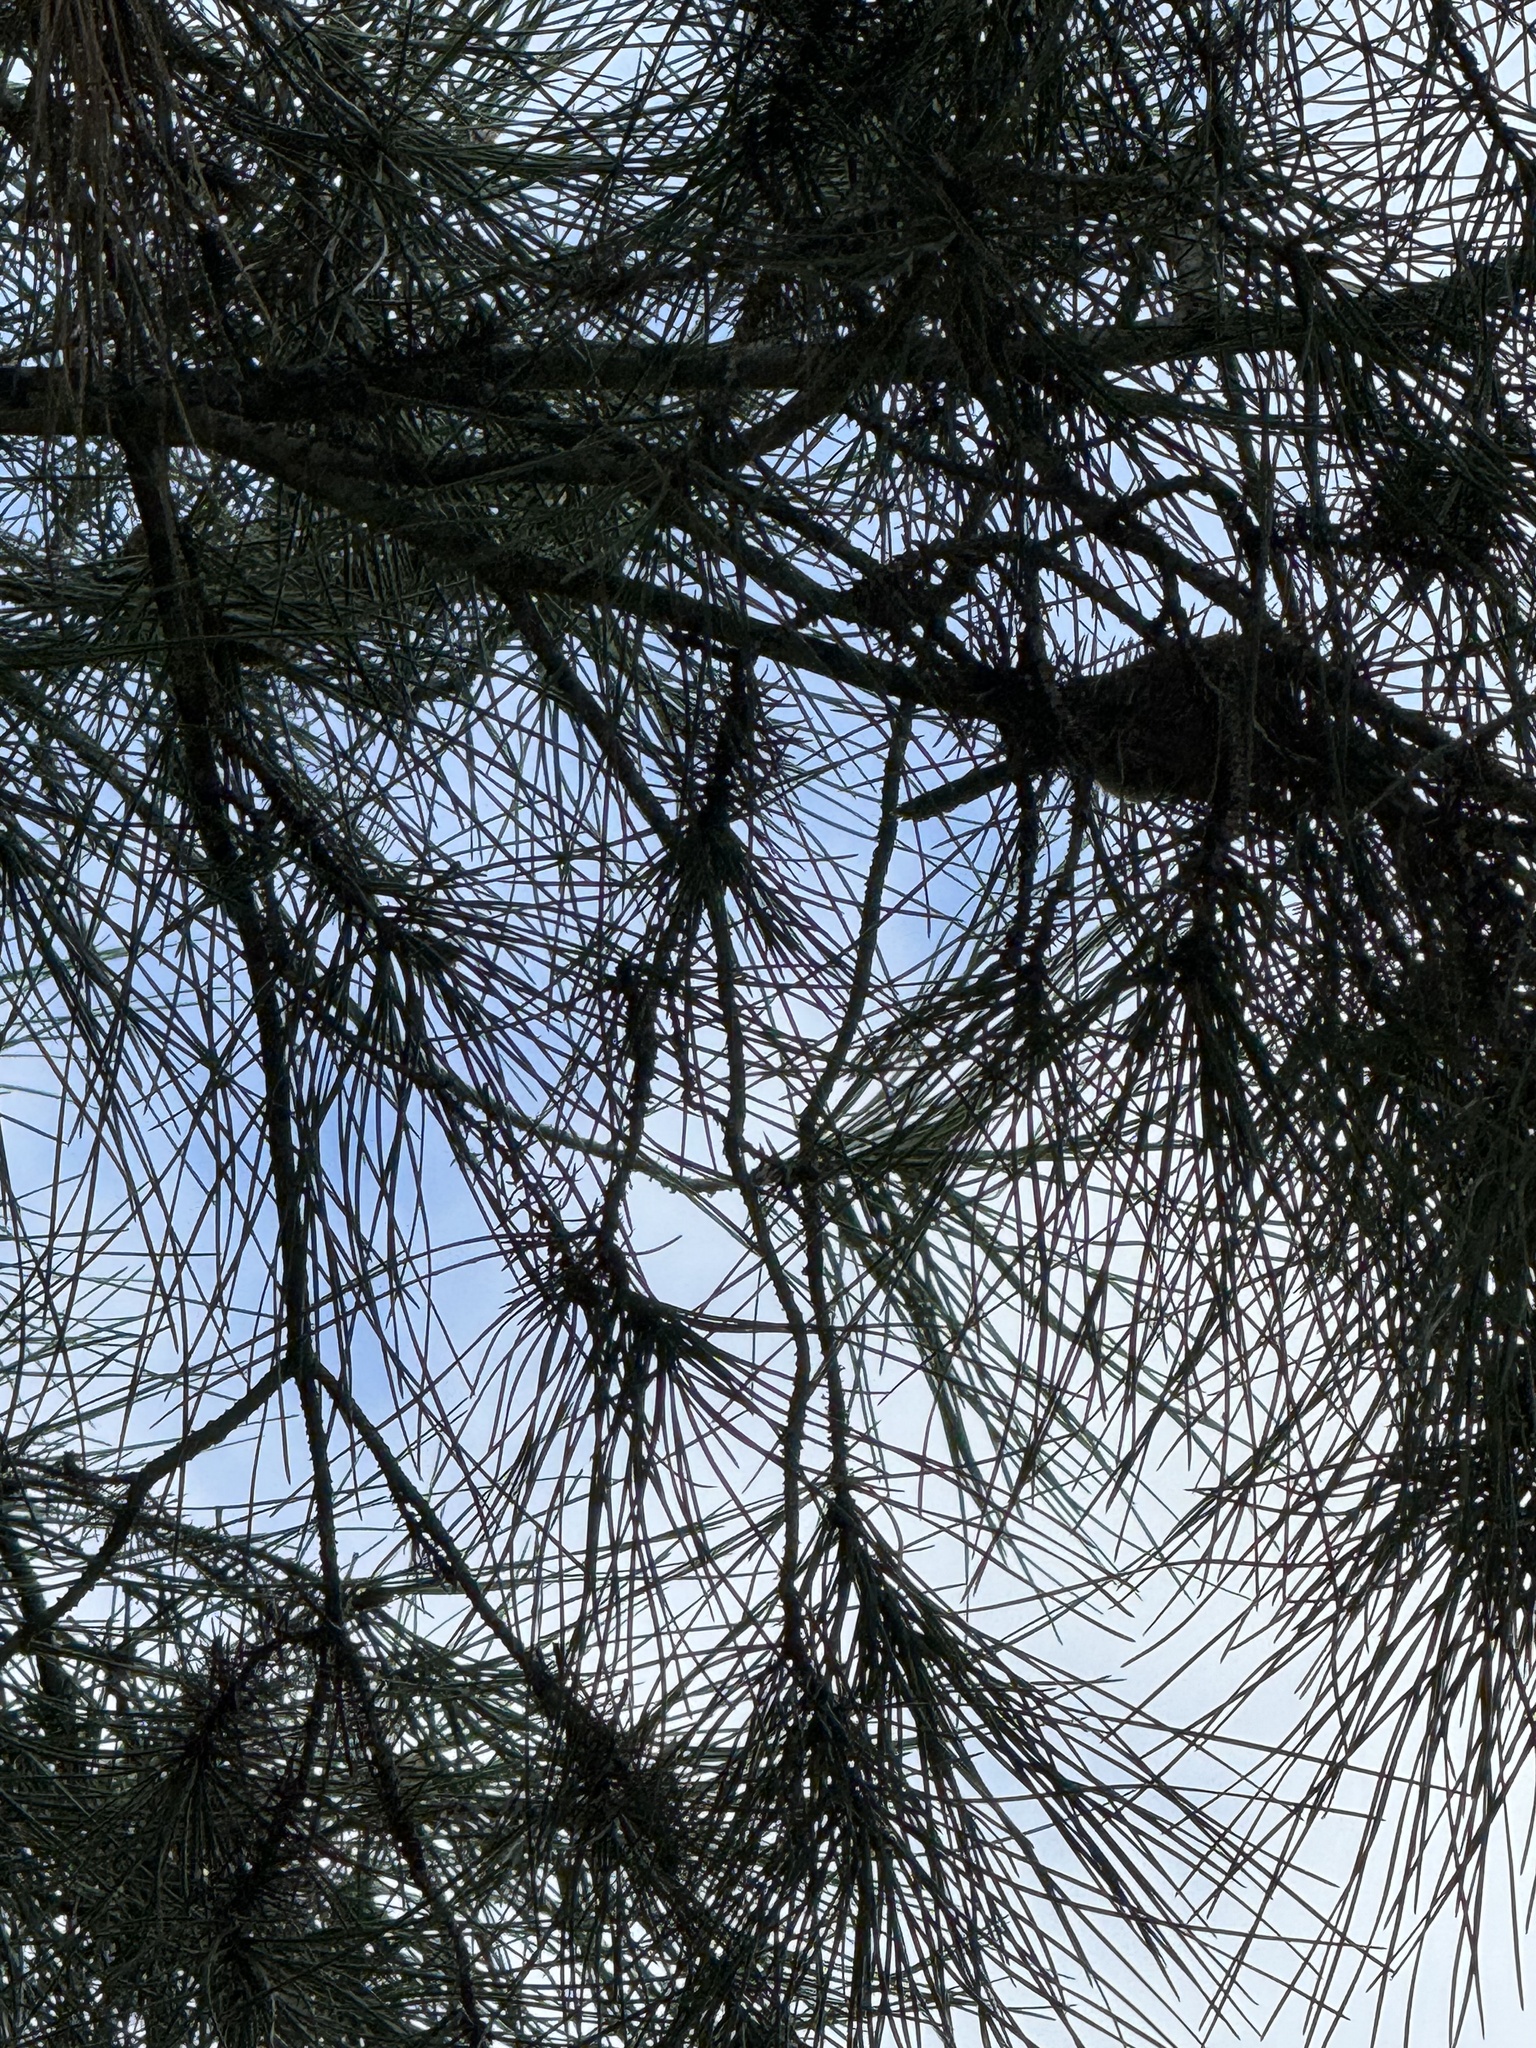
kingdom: Animalia
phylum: Chordata
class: Aves
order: Passeriformes
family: Aegithalidae
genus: Psaltriparus
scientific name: Psaltriparus minimus
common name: American bushtit
